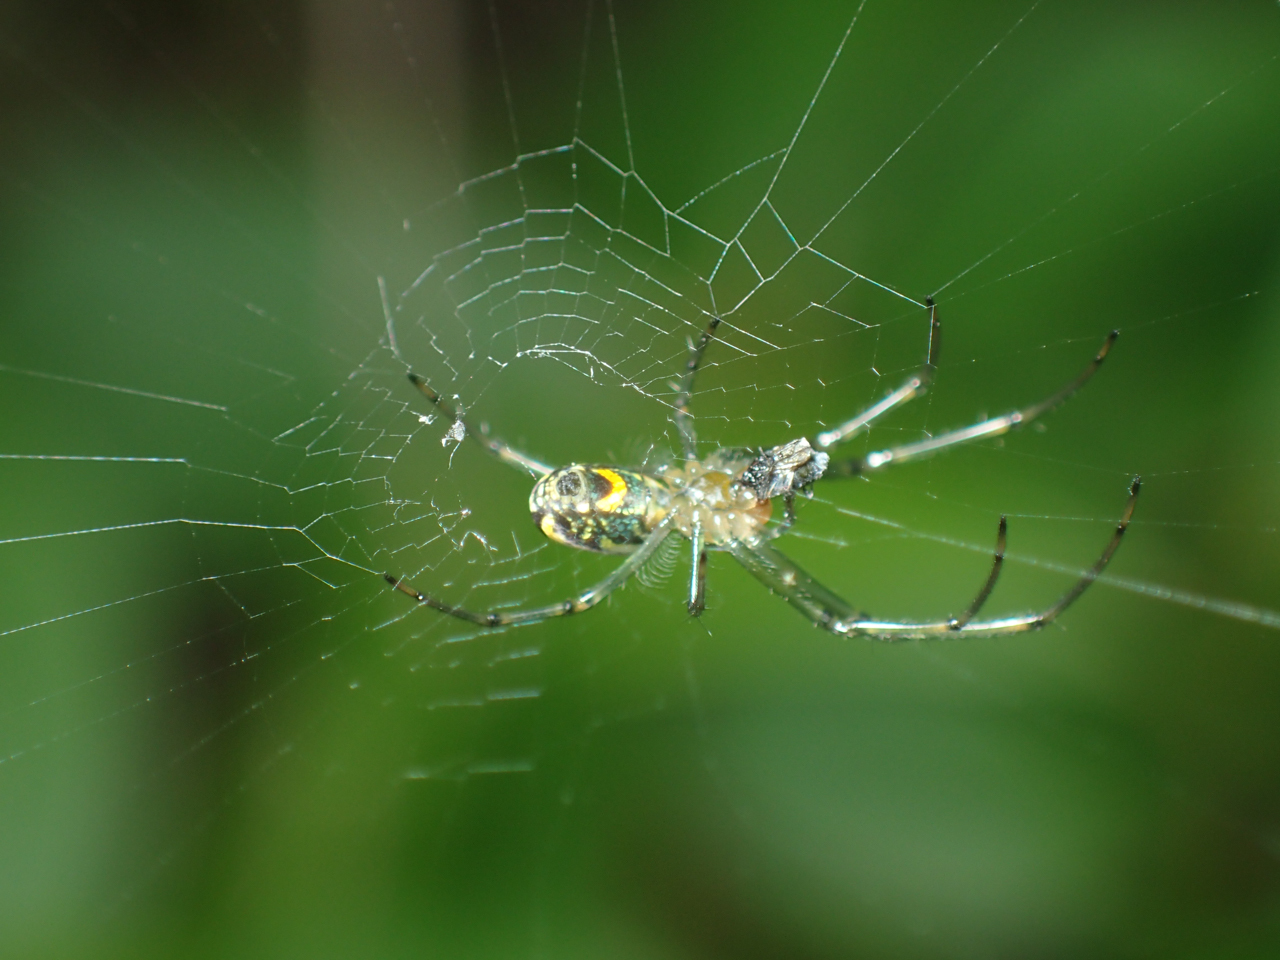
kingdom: Animalia
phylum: Arthropoda
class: Arachnida
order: Araneae
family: Tetragnathidae
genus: Leucauge
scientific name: Leucauge venusta
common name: Longjawed orb weavers
